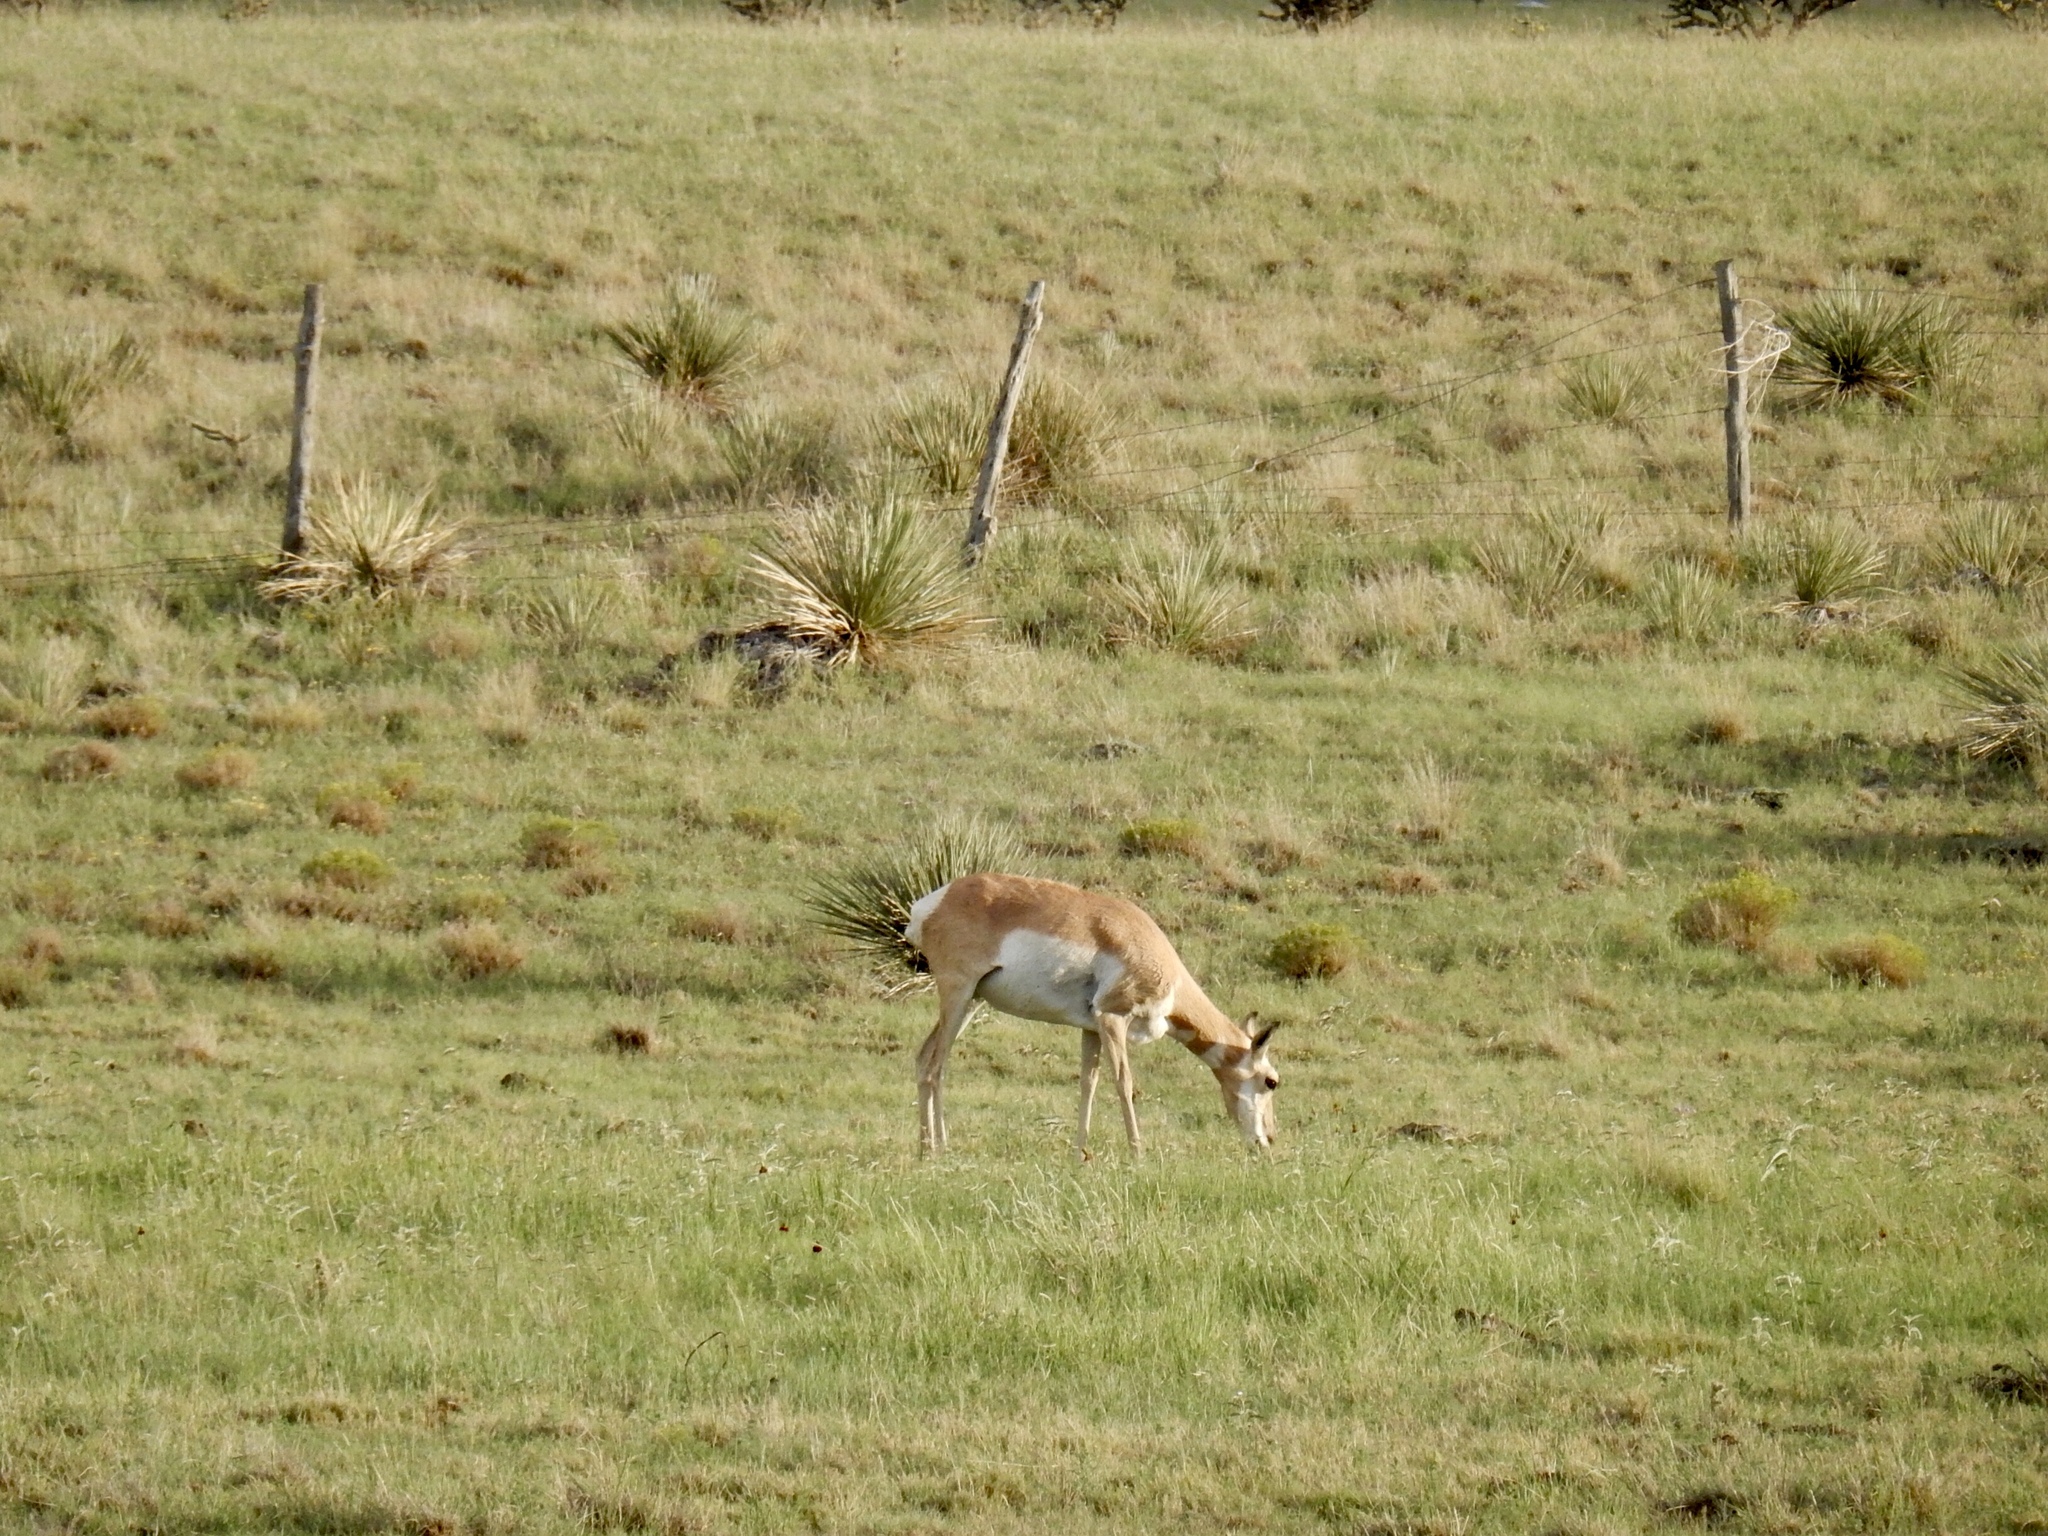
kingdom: Animalia
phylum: Chordata
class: Mammalia
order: Artiodactyla
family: Antilocapridae
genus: Antilocapra
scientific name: Antilocapra americana
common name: Pronghorn
